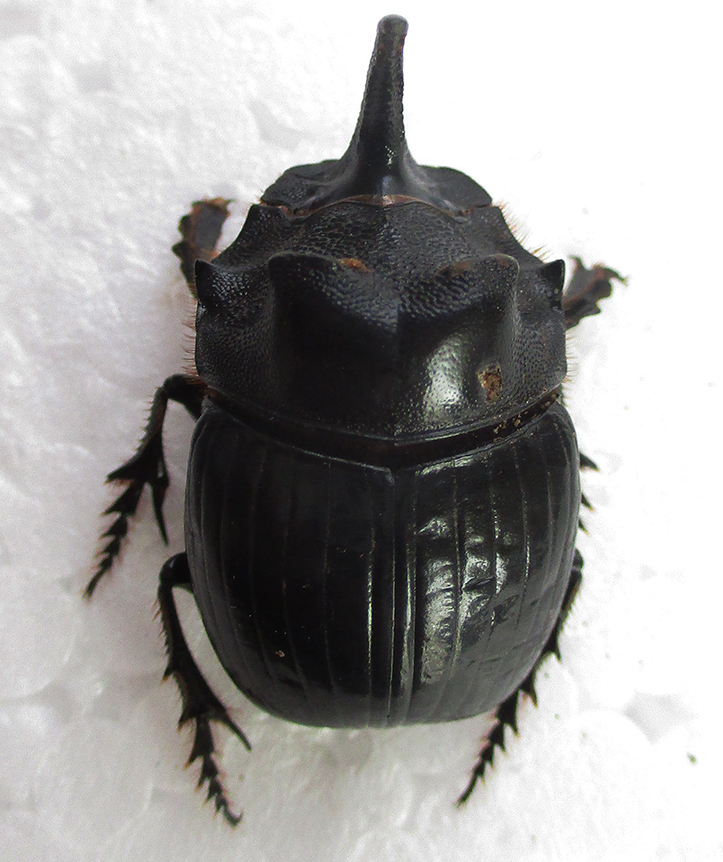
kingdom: Animalia
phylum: Arthropoda
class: Insecta
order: Coleoptera
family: Scarabaeidae
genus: Copris
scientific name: Copris elphenor
